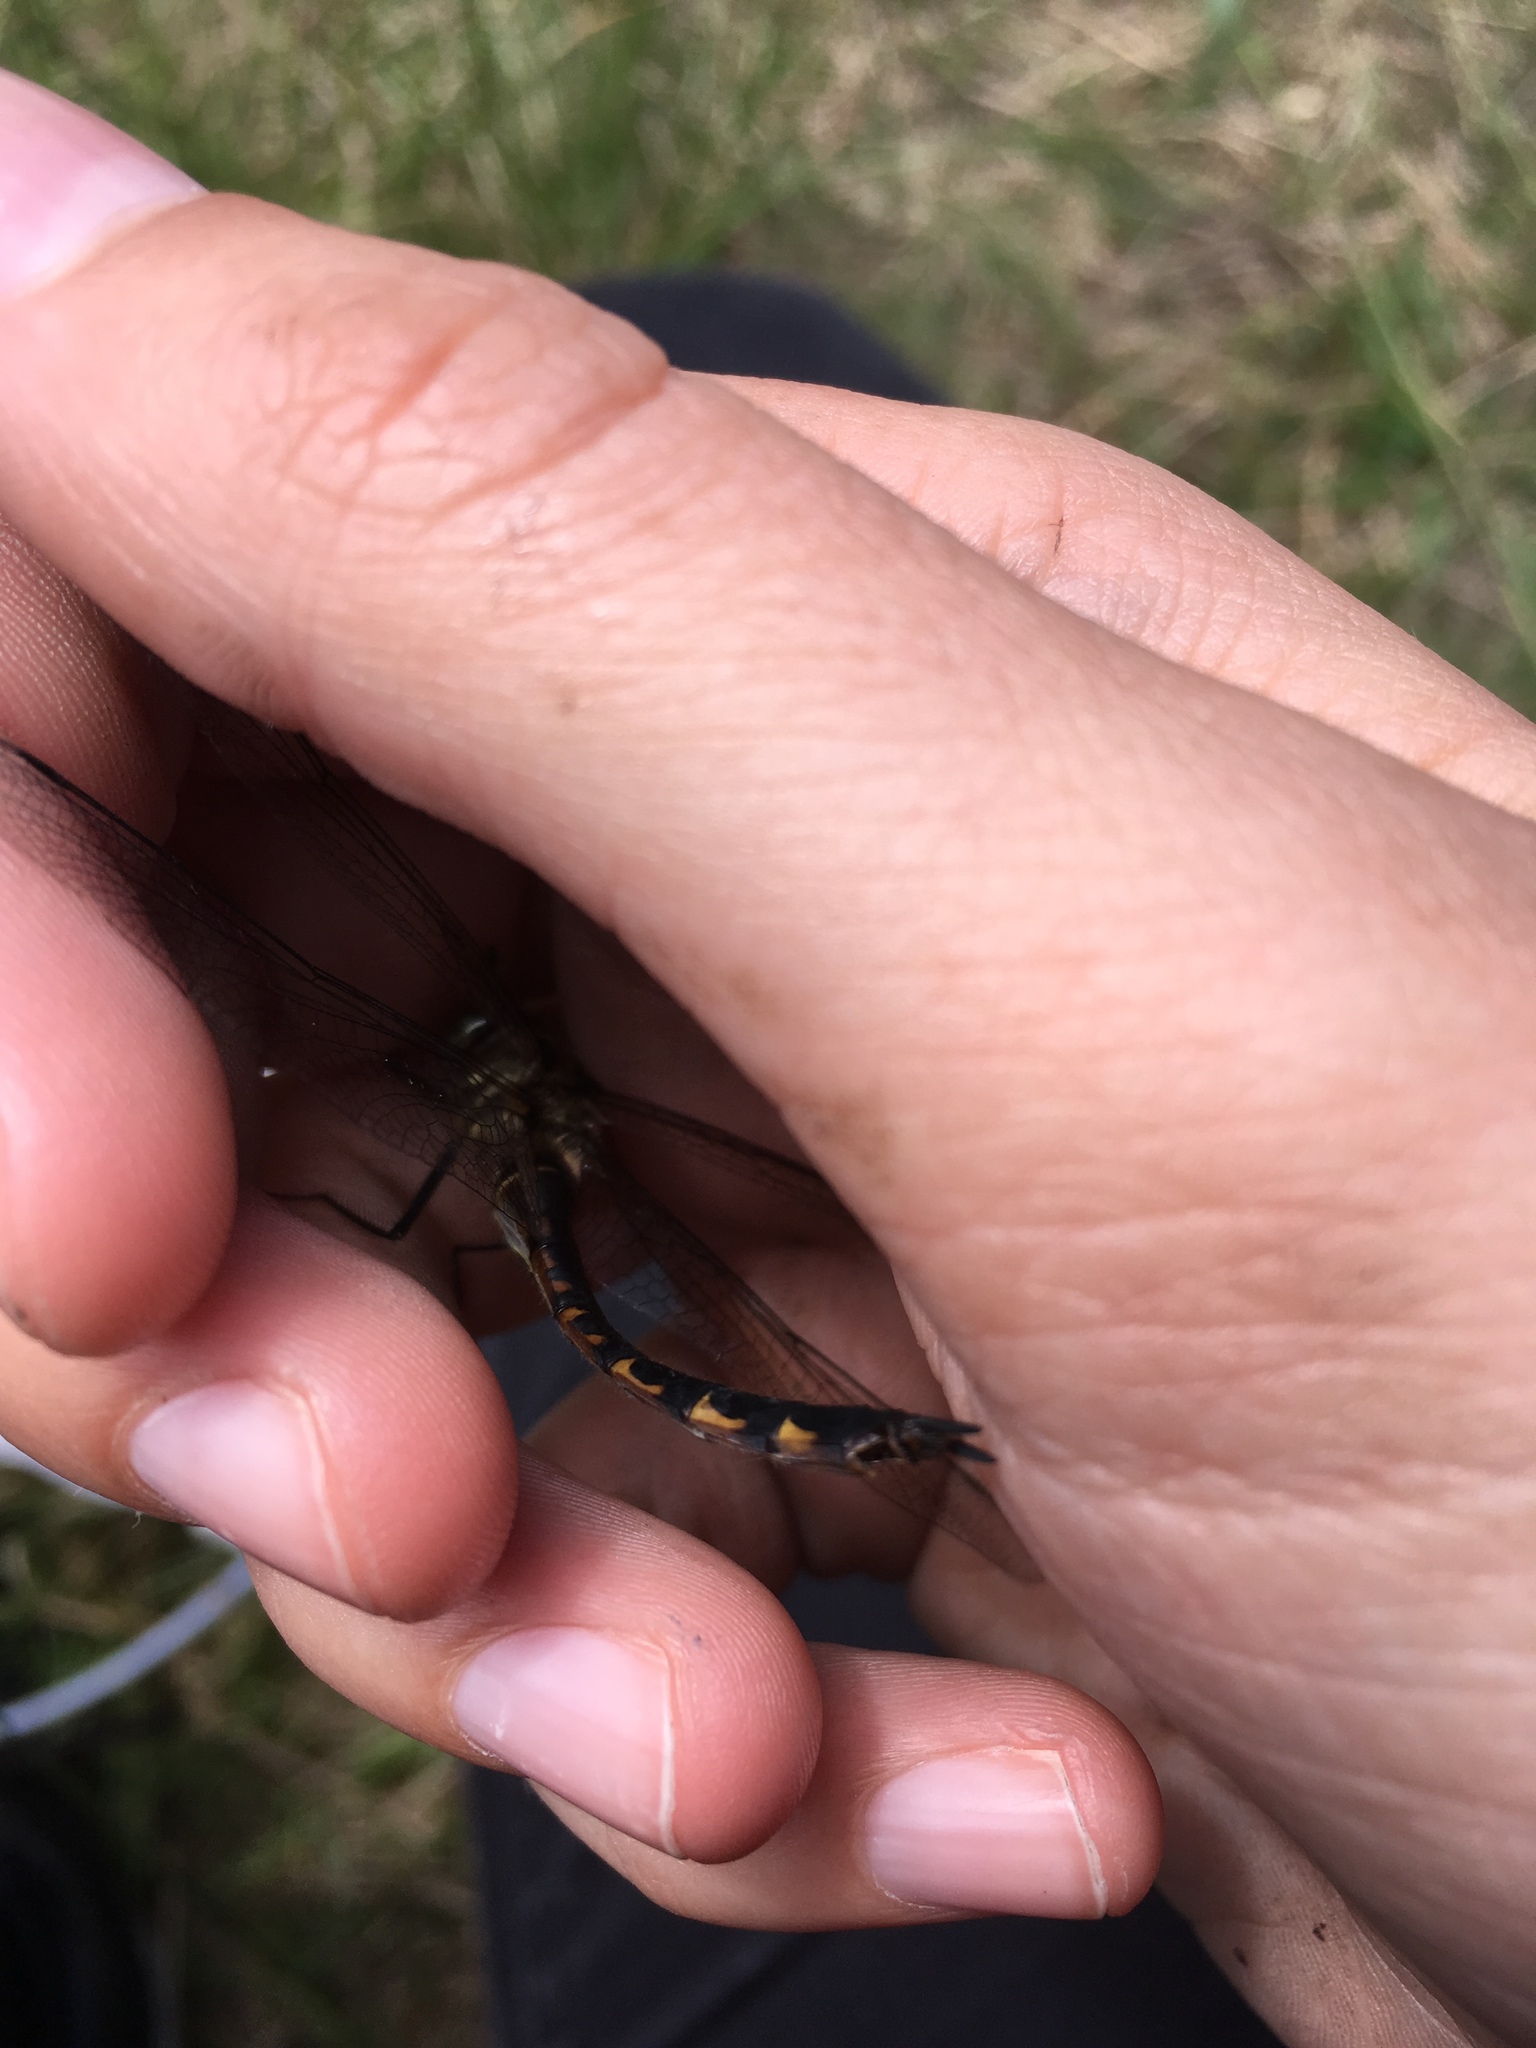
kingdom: Animalia
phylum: Arthropoda
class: Insecta
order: Odonata
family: Corduliidae
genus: Hemicordulia
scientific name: Hemicordulia australiae
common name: Sentry dragonfly
